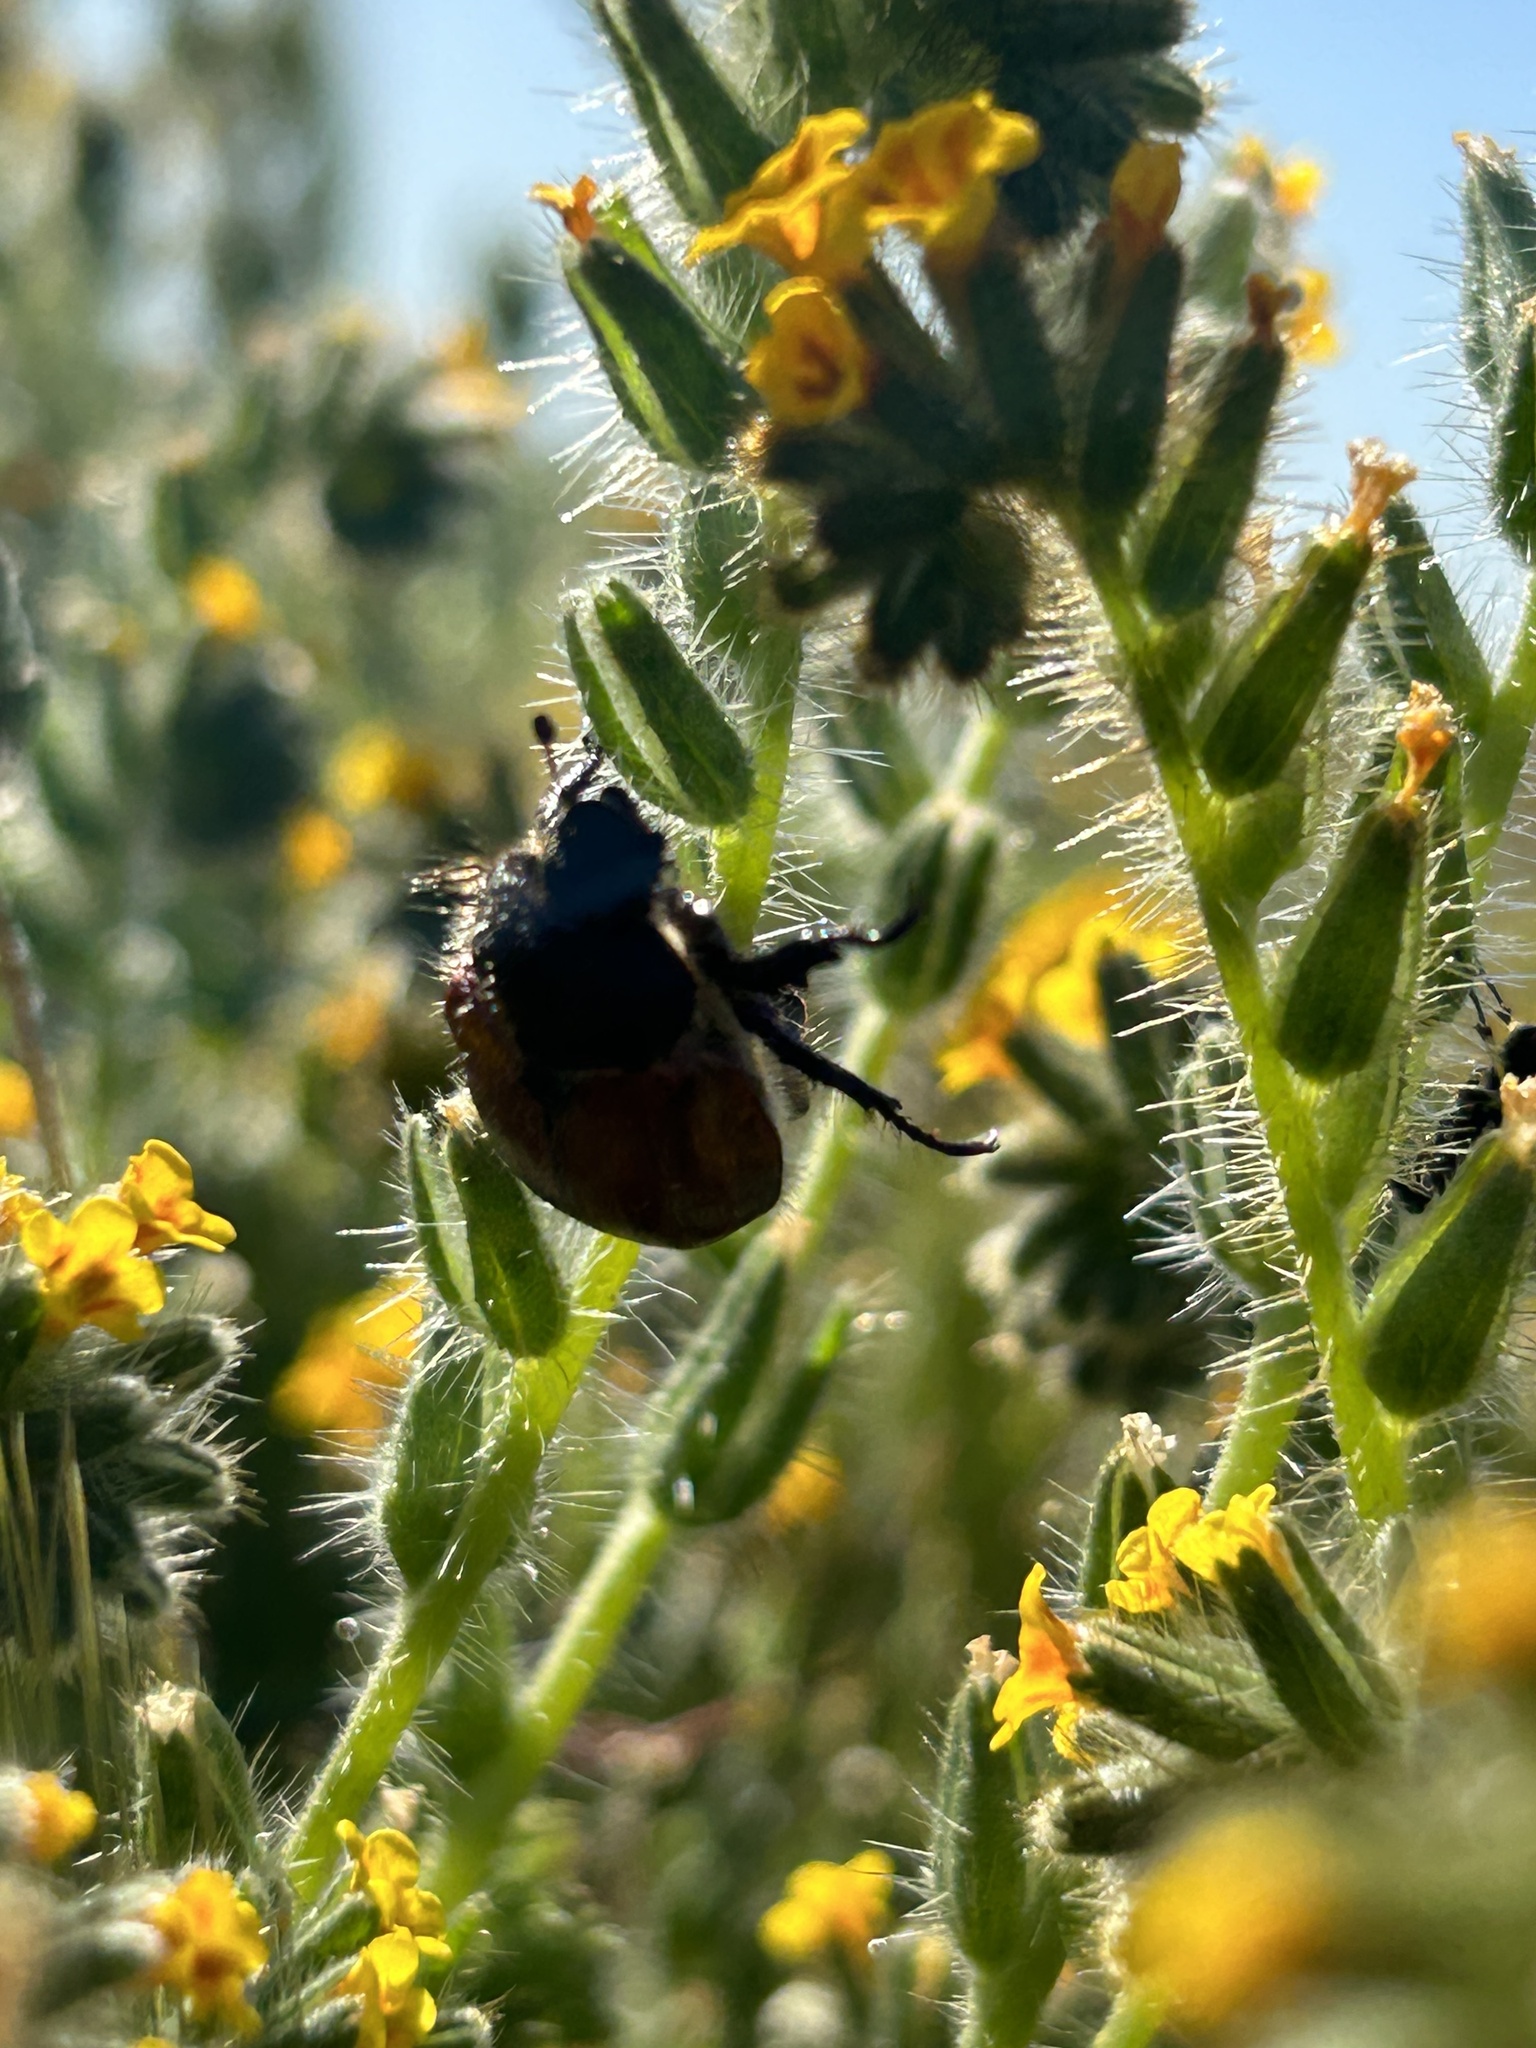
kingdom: Animalia
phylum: Arthropoda
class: Insecta
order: Coleoptera
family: Scarabaeidae
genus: Paracotalpa
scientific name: Paracotalpa ursina
